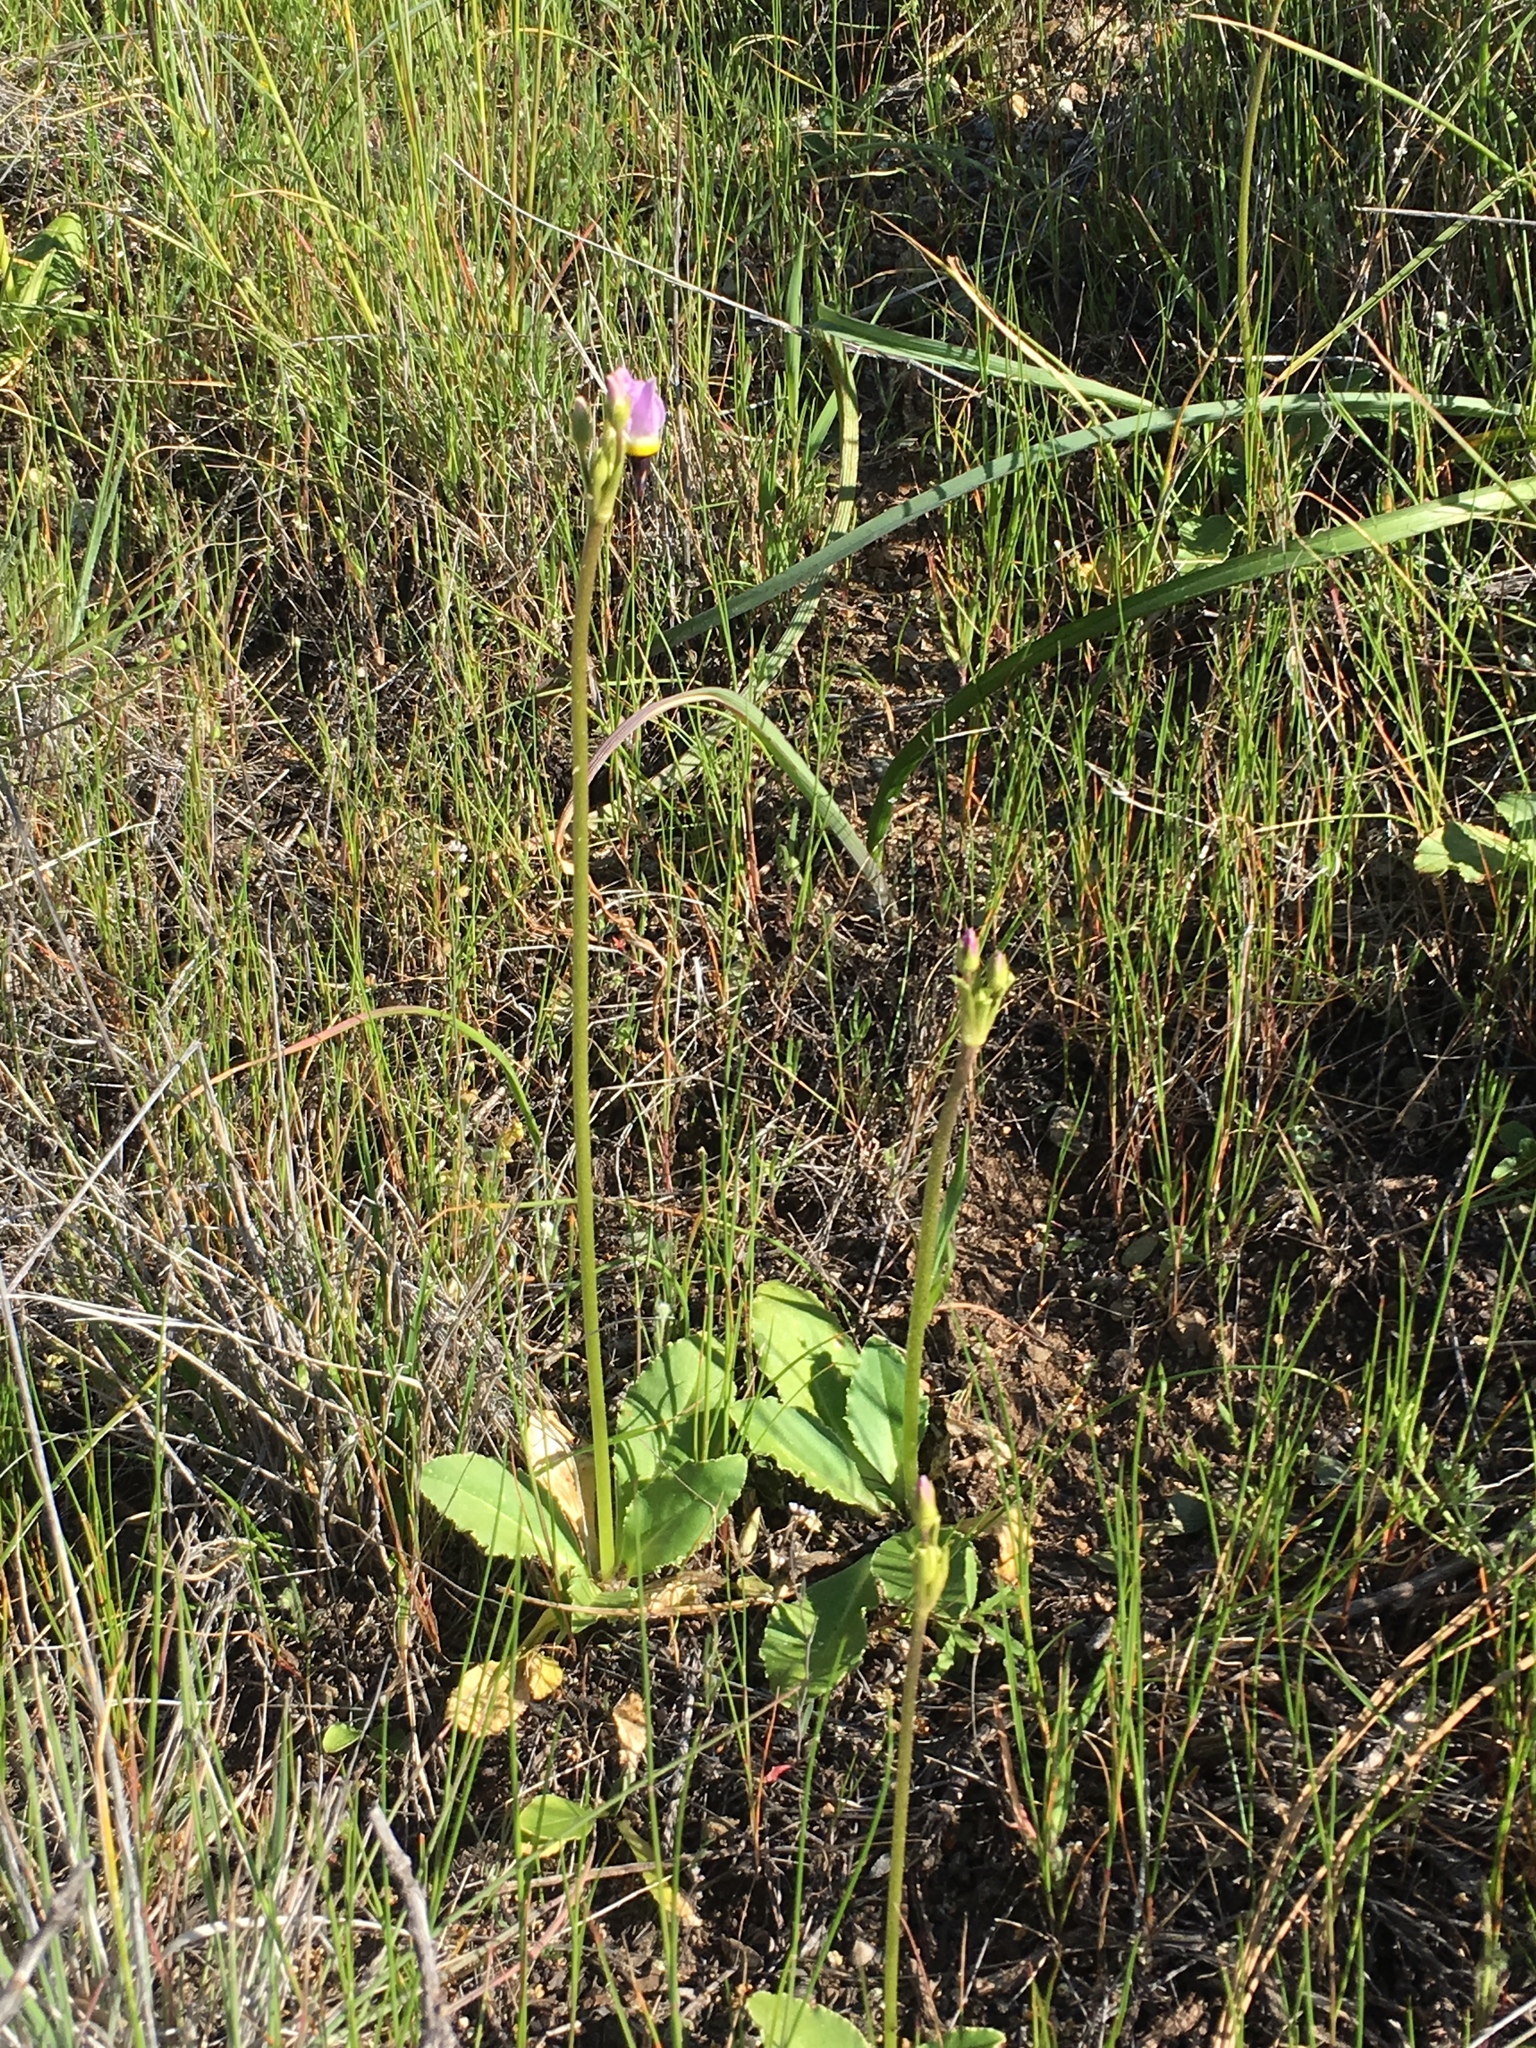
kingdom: Plantae
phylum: Tracheophyta
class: Magnoliopsida
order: Ericales
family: Primulaceae
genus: Dodecatheon
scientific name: Dodecatheon clevelandii
